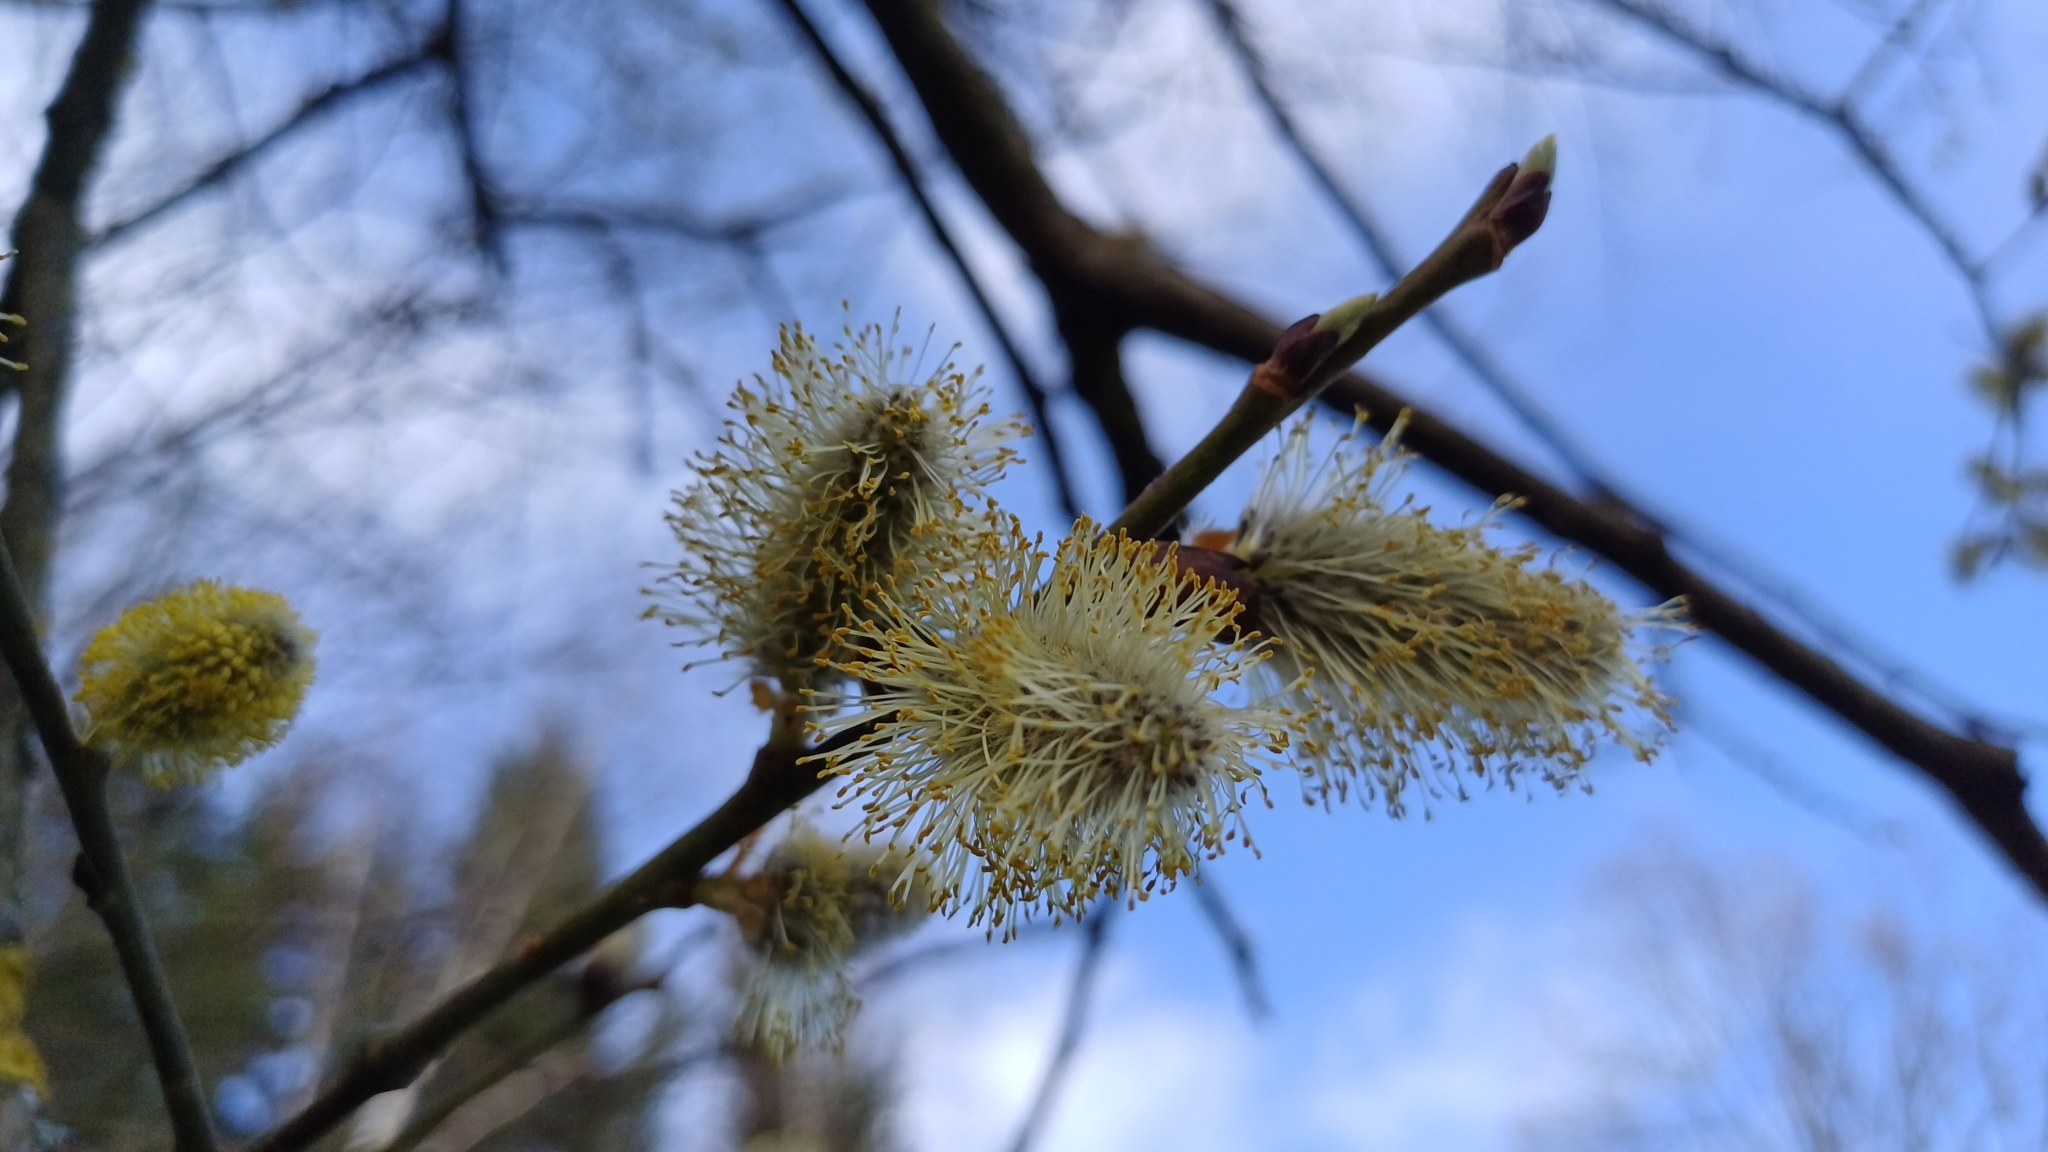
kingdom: Plantae
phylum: Tracheophyta
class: Magnoliopsida
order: Malpighiales
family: Salicaceae
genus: Salix
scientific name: Salix caprea
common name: Goat willow
